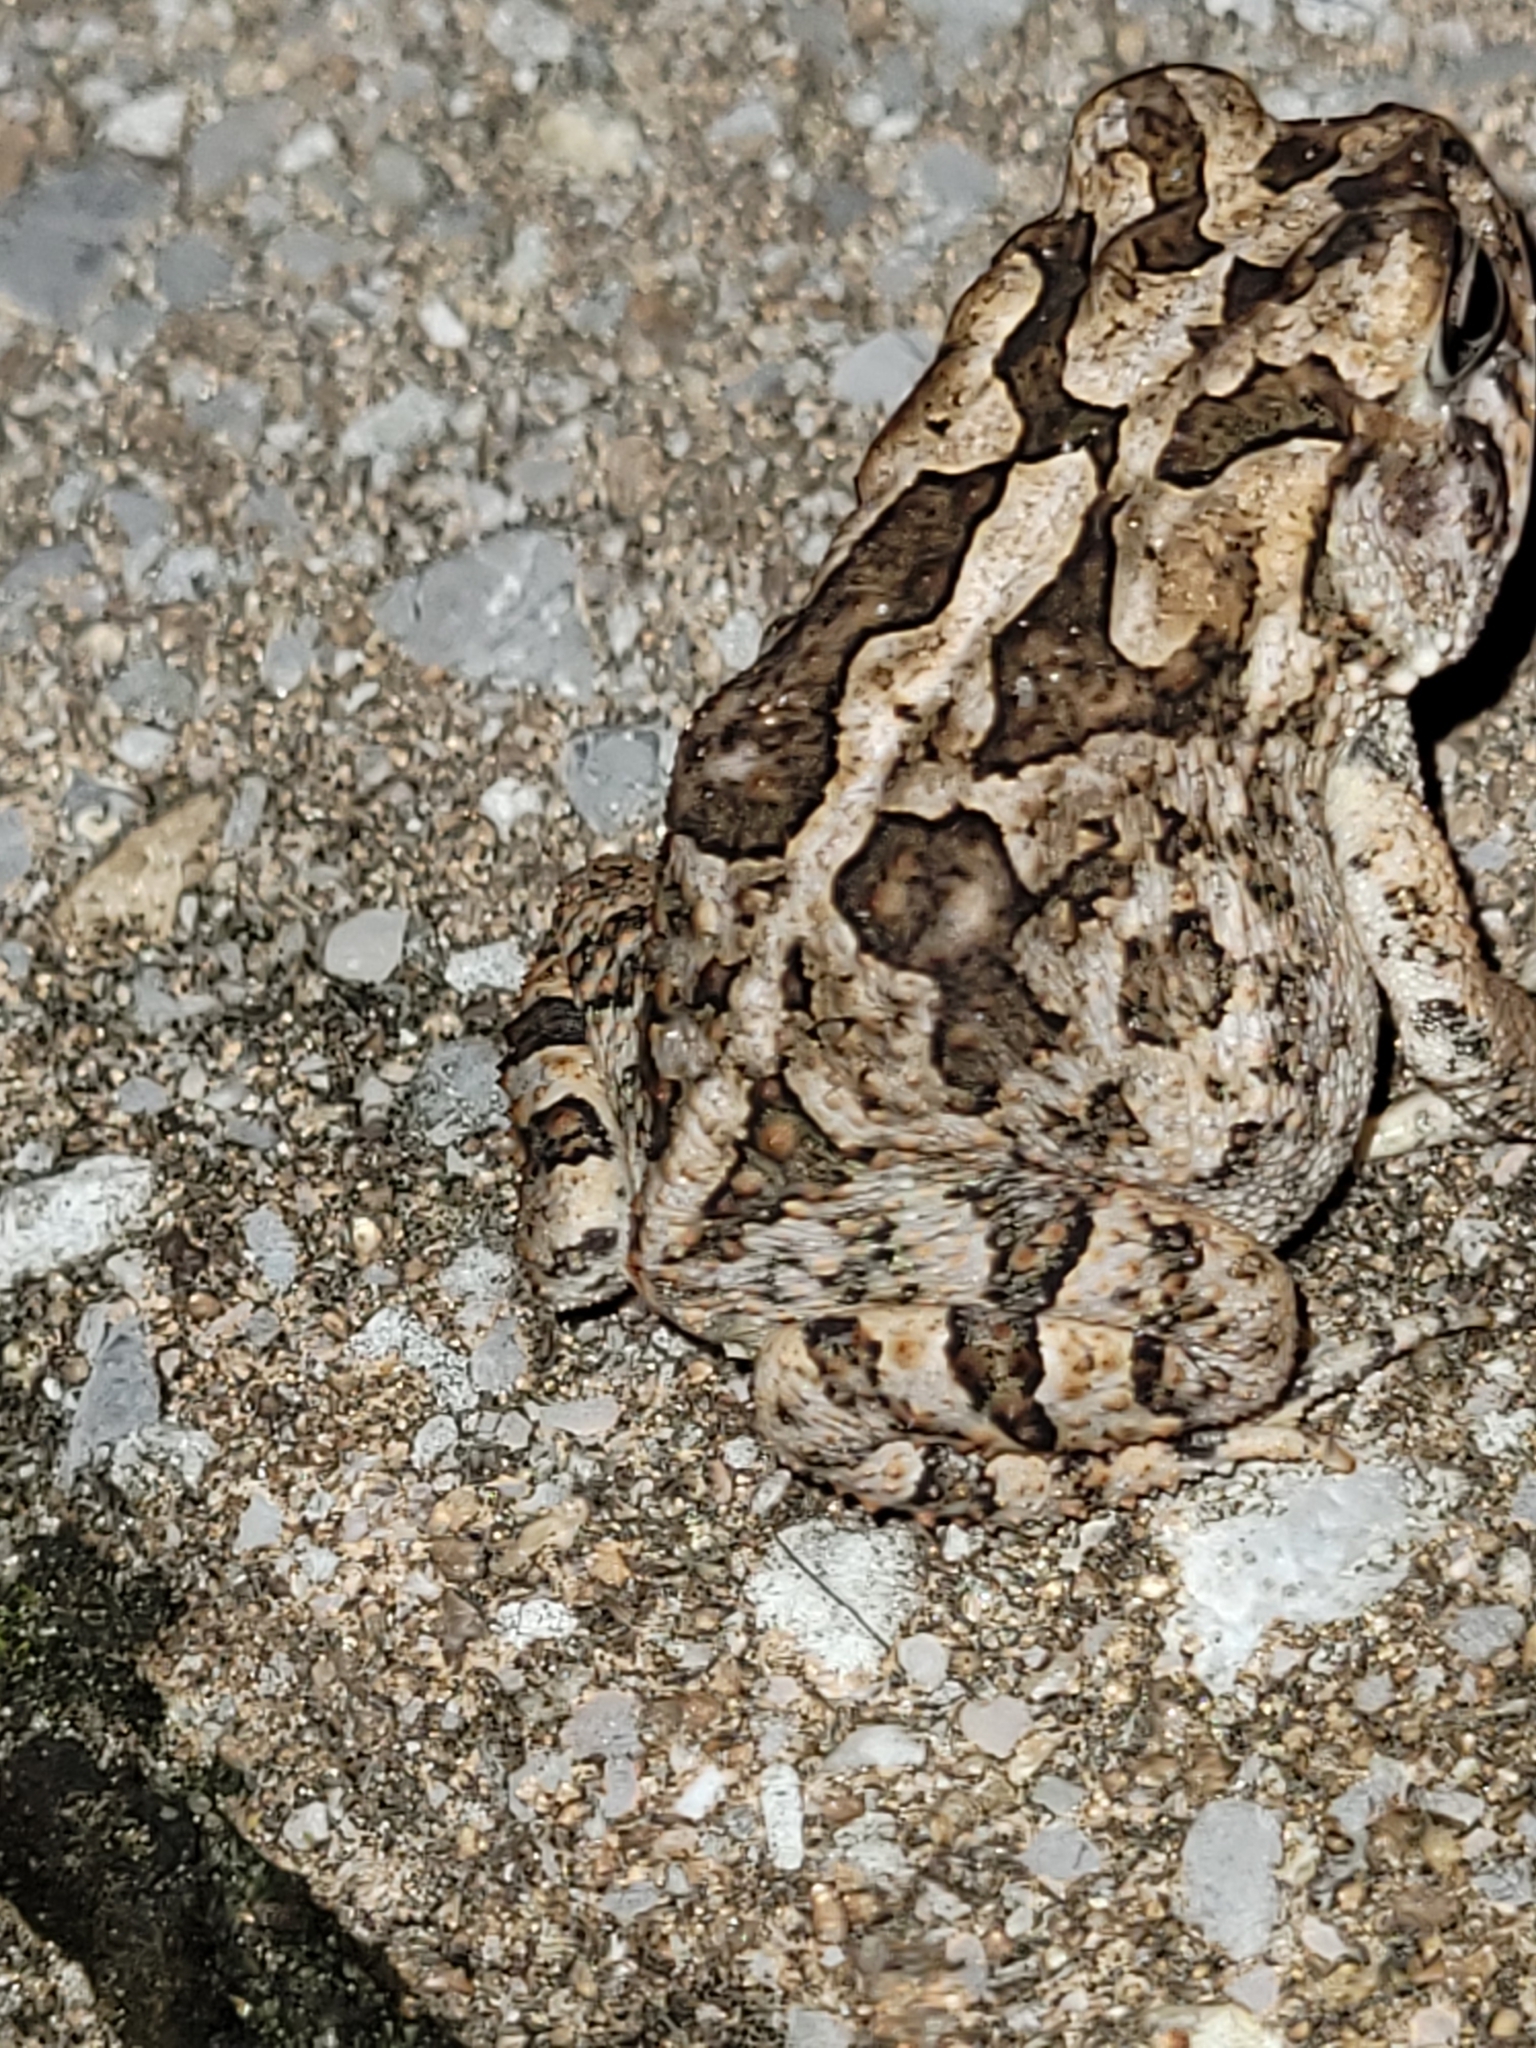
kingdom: Animalia
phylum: Chordata
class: Amphibia
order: Anura
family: Bufonidae
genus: Anaxyrus
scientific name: Anaxyrus terrestris
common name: Southern toad
